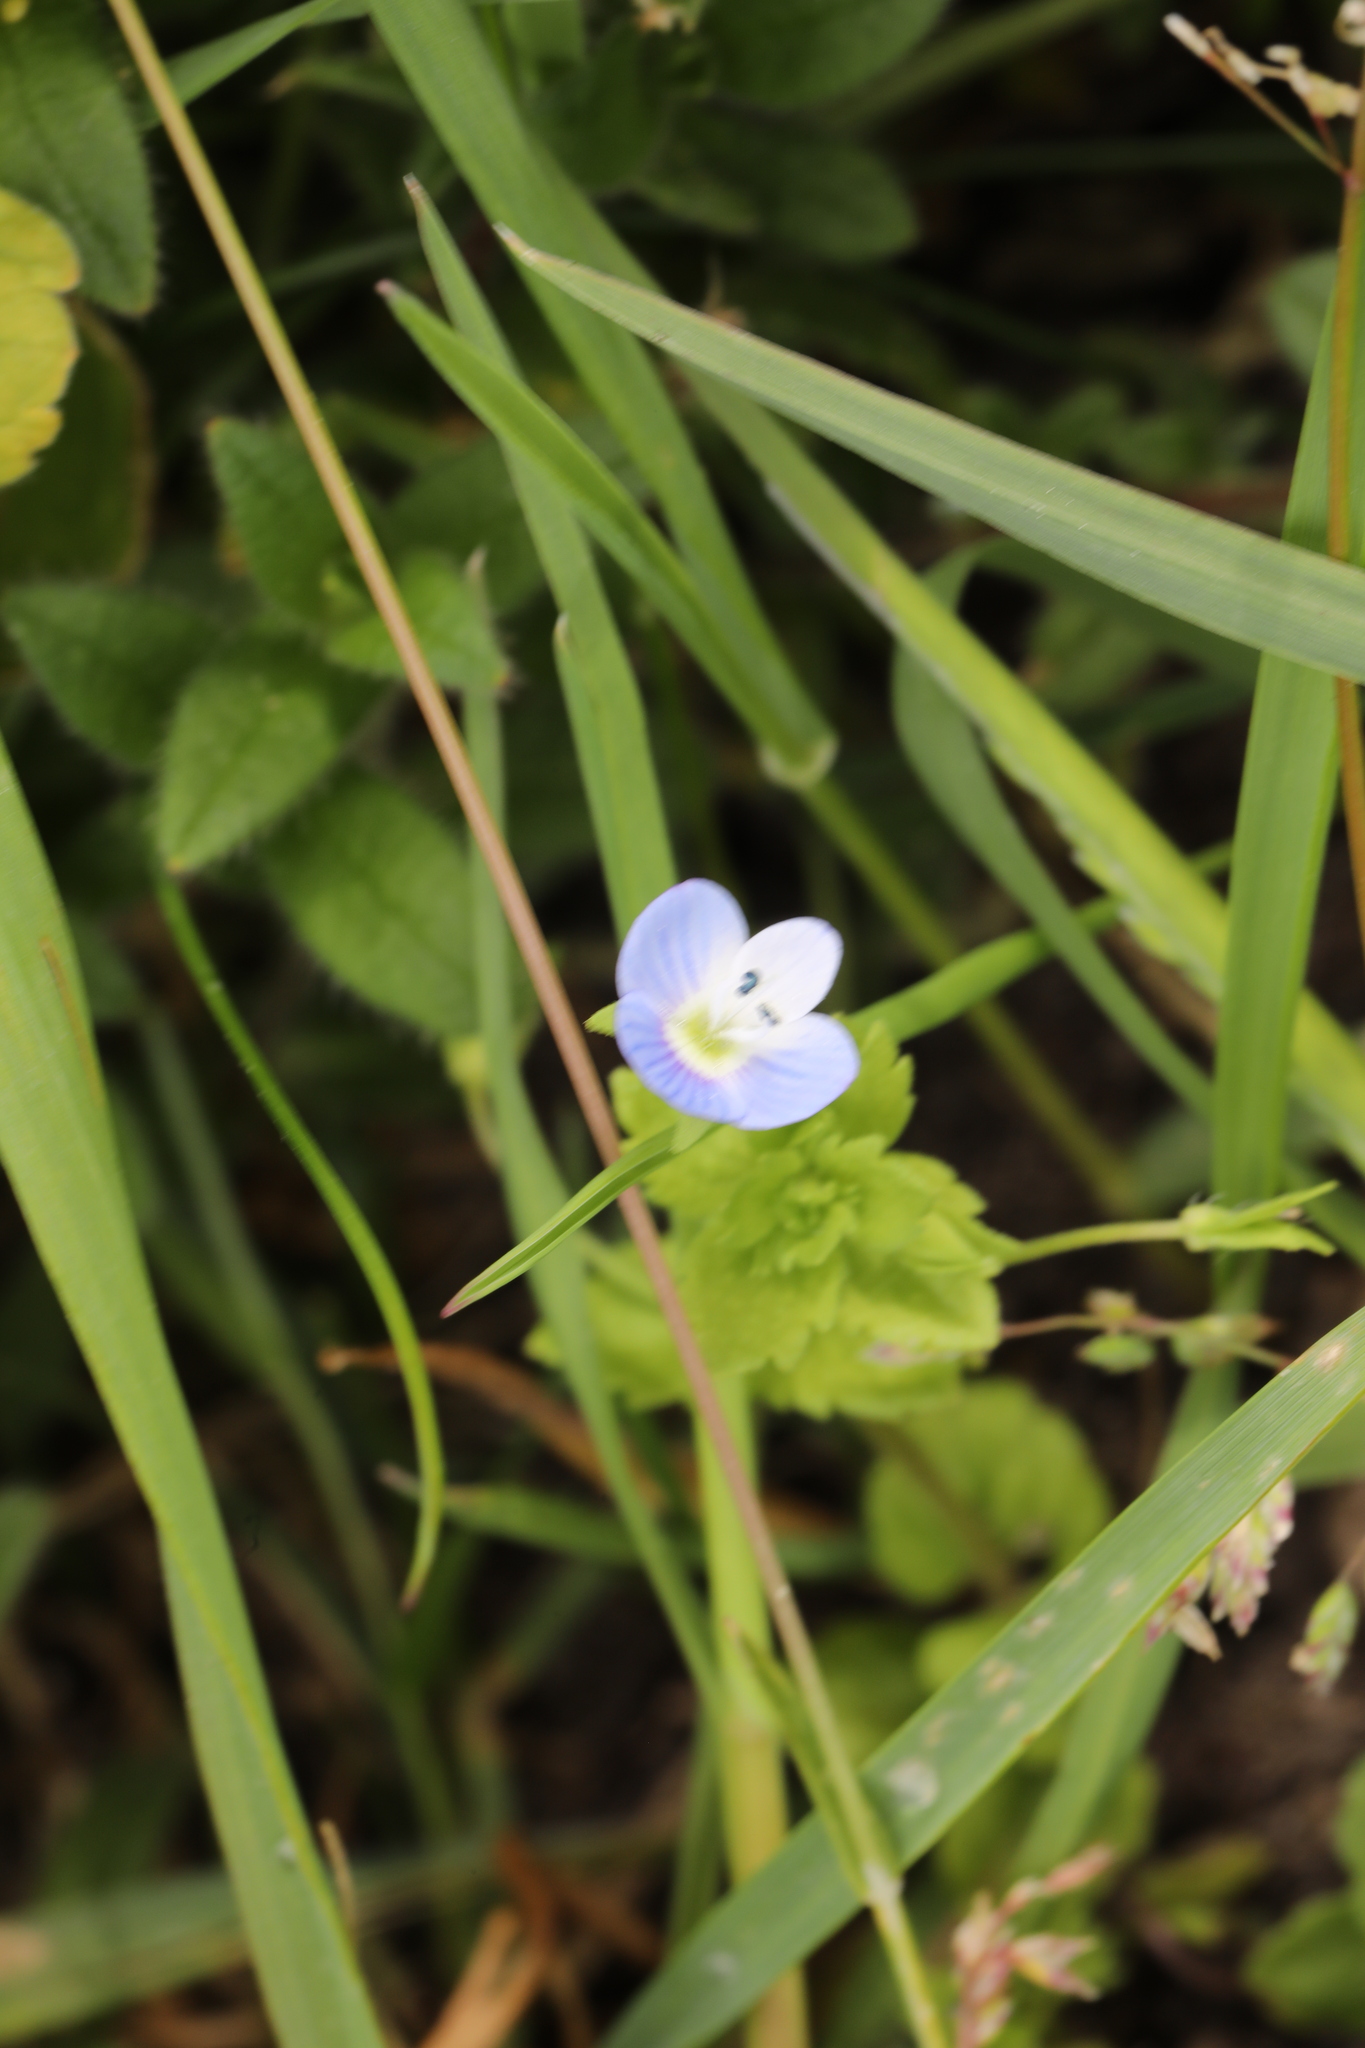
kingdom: Plantae
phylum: Tracheophyta
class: Magnoliopsida
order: Lamiales
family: Plantaginaceae
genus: Veronica
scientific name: Veronica persica
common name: Common field-speedwell
